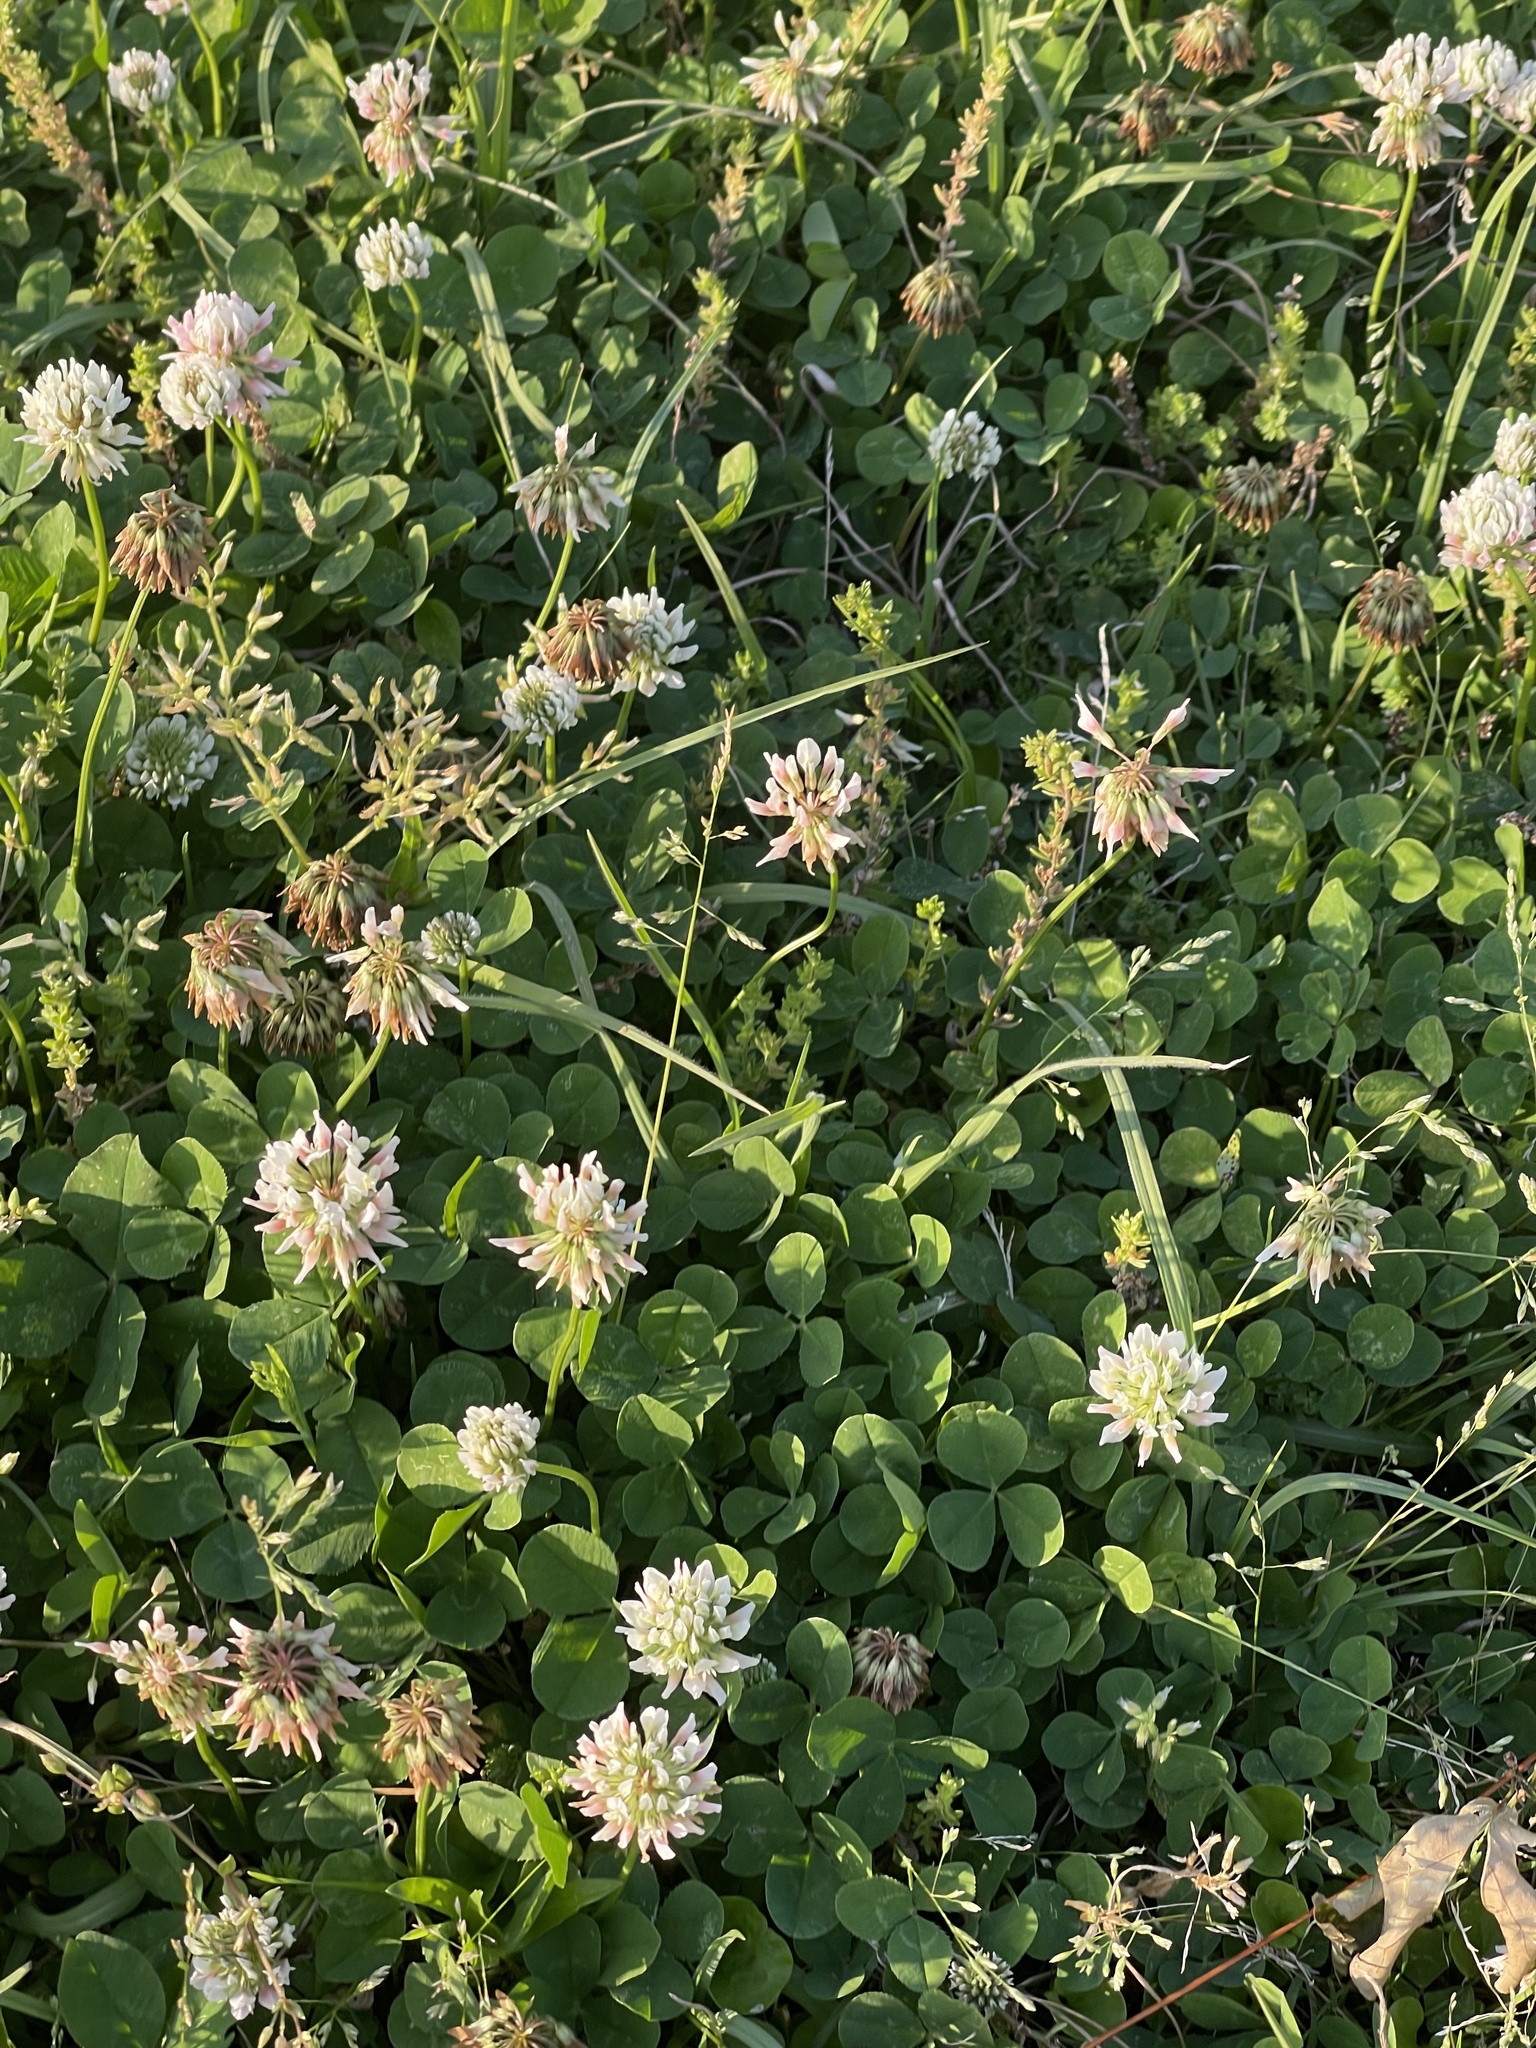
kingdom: Plantae
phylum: Tracheophyta
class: Magnoliopsida
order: Fabales
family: Fabaceae
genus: Trifolium
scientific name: Trifolium repens
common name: White clover
